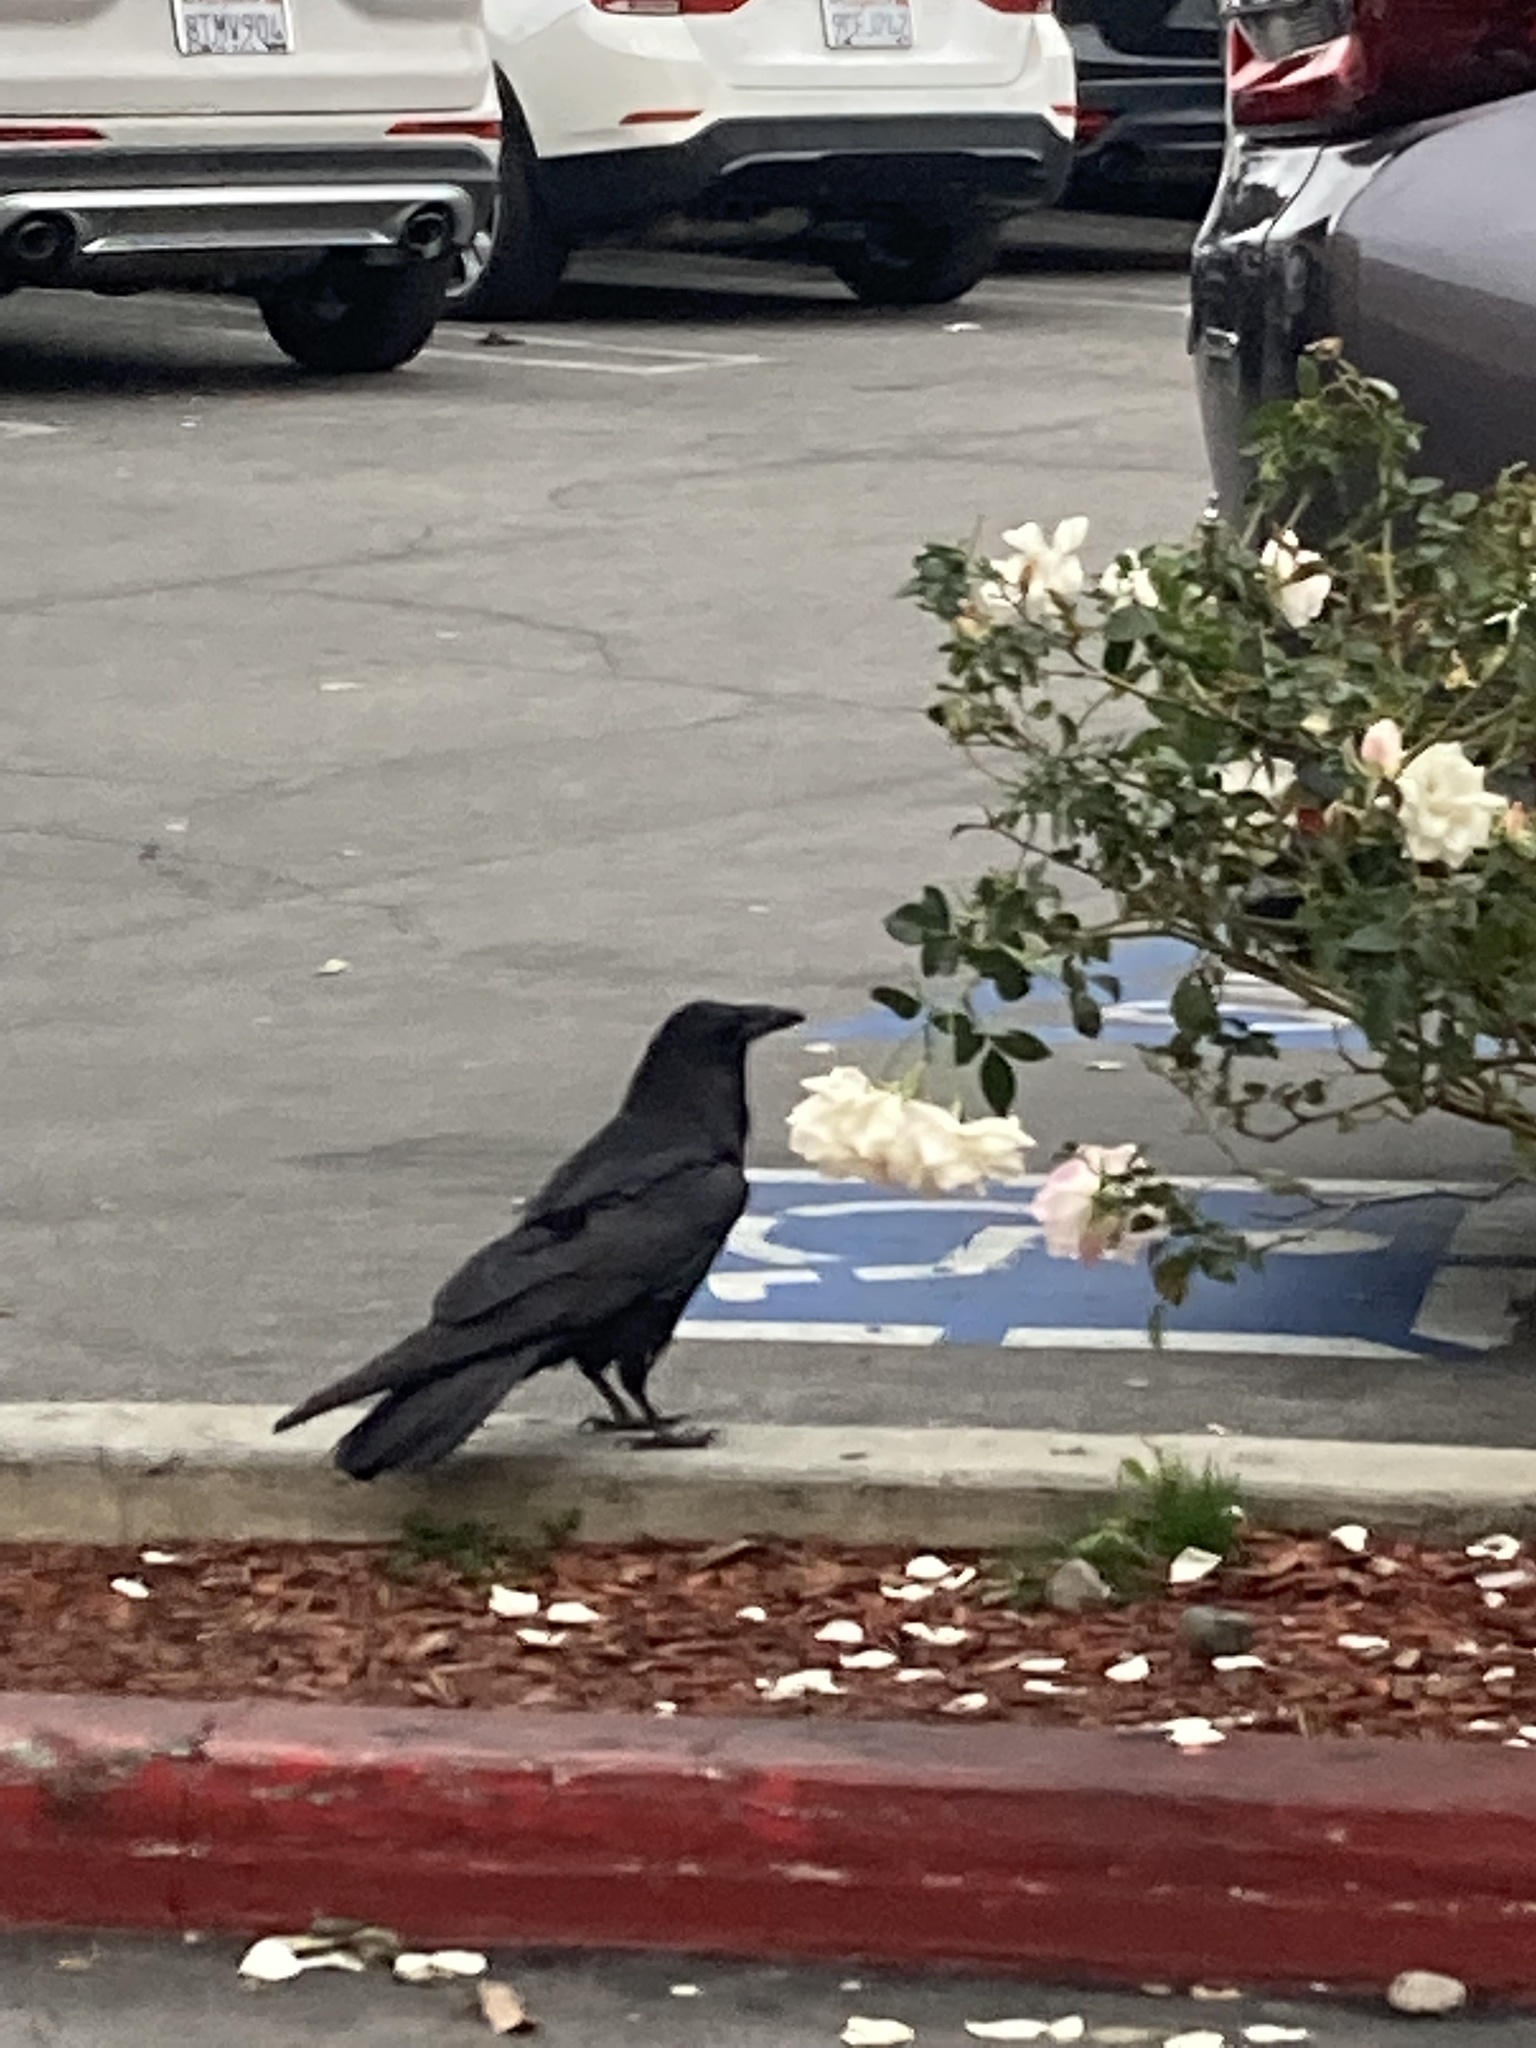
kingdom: Animalia
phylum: Chordata
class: Aves
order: Passeriformes
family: Corvidae
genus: Corvus
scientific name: Corvus corax
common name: Common raven
